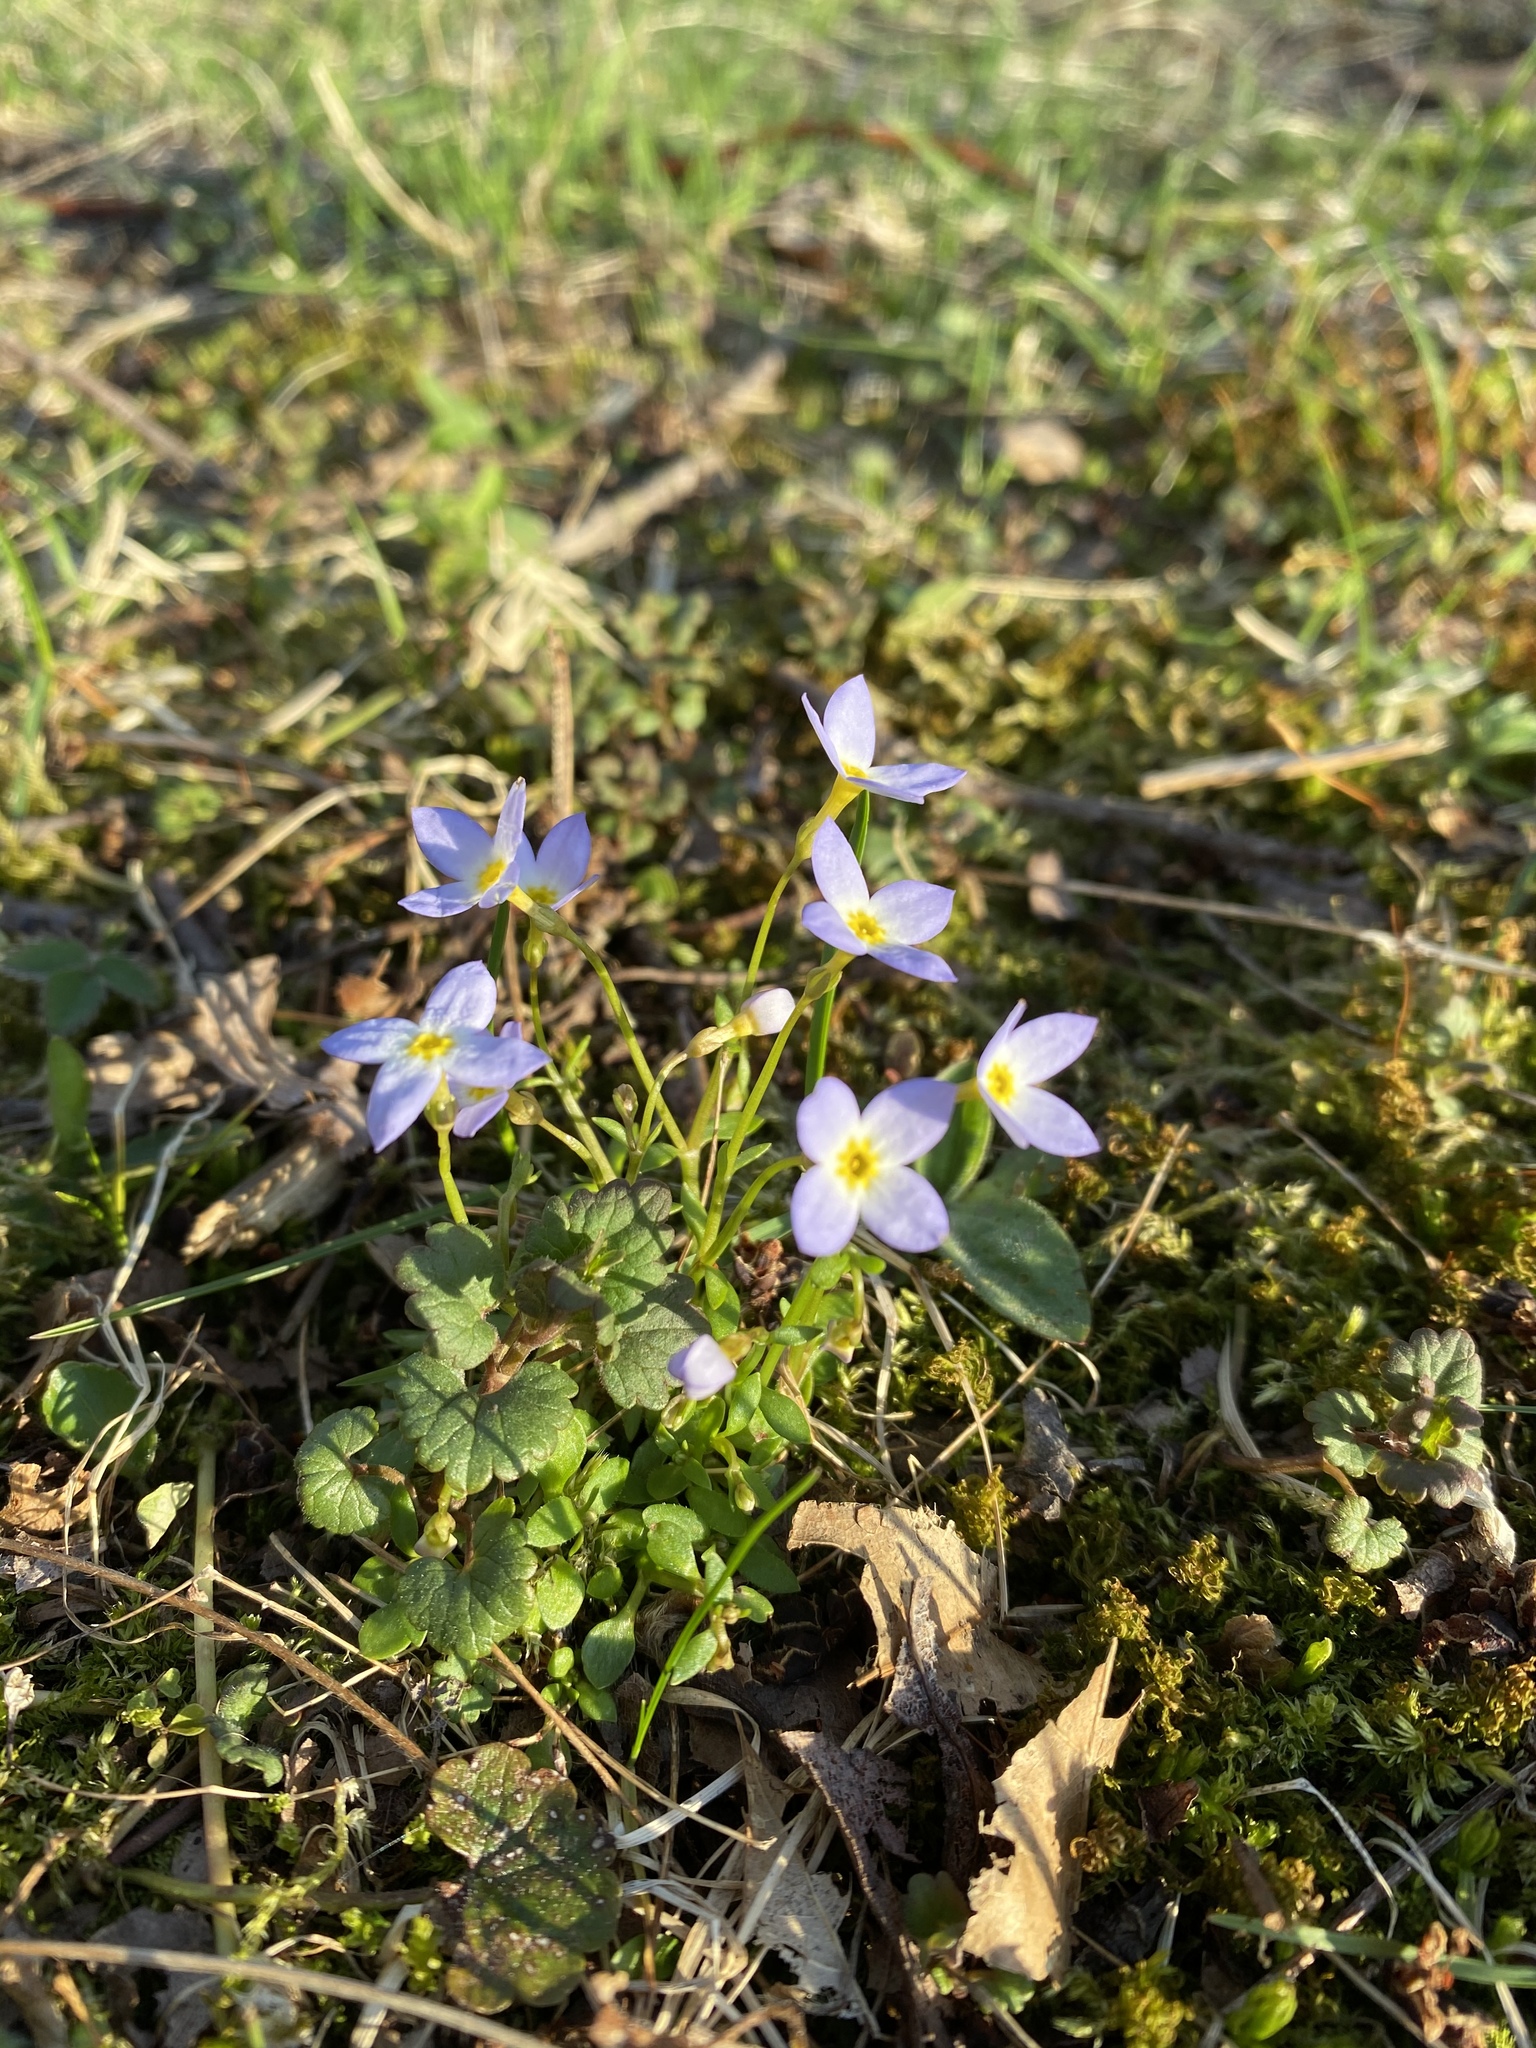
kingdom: Plantae
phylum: Tracheophyta
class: Magnoliopsida
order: Gentianales
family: Rubiaceae
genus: Houstonia
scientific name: Houstonia caerulea
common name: Bluets
